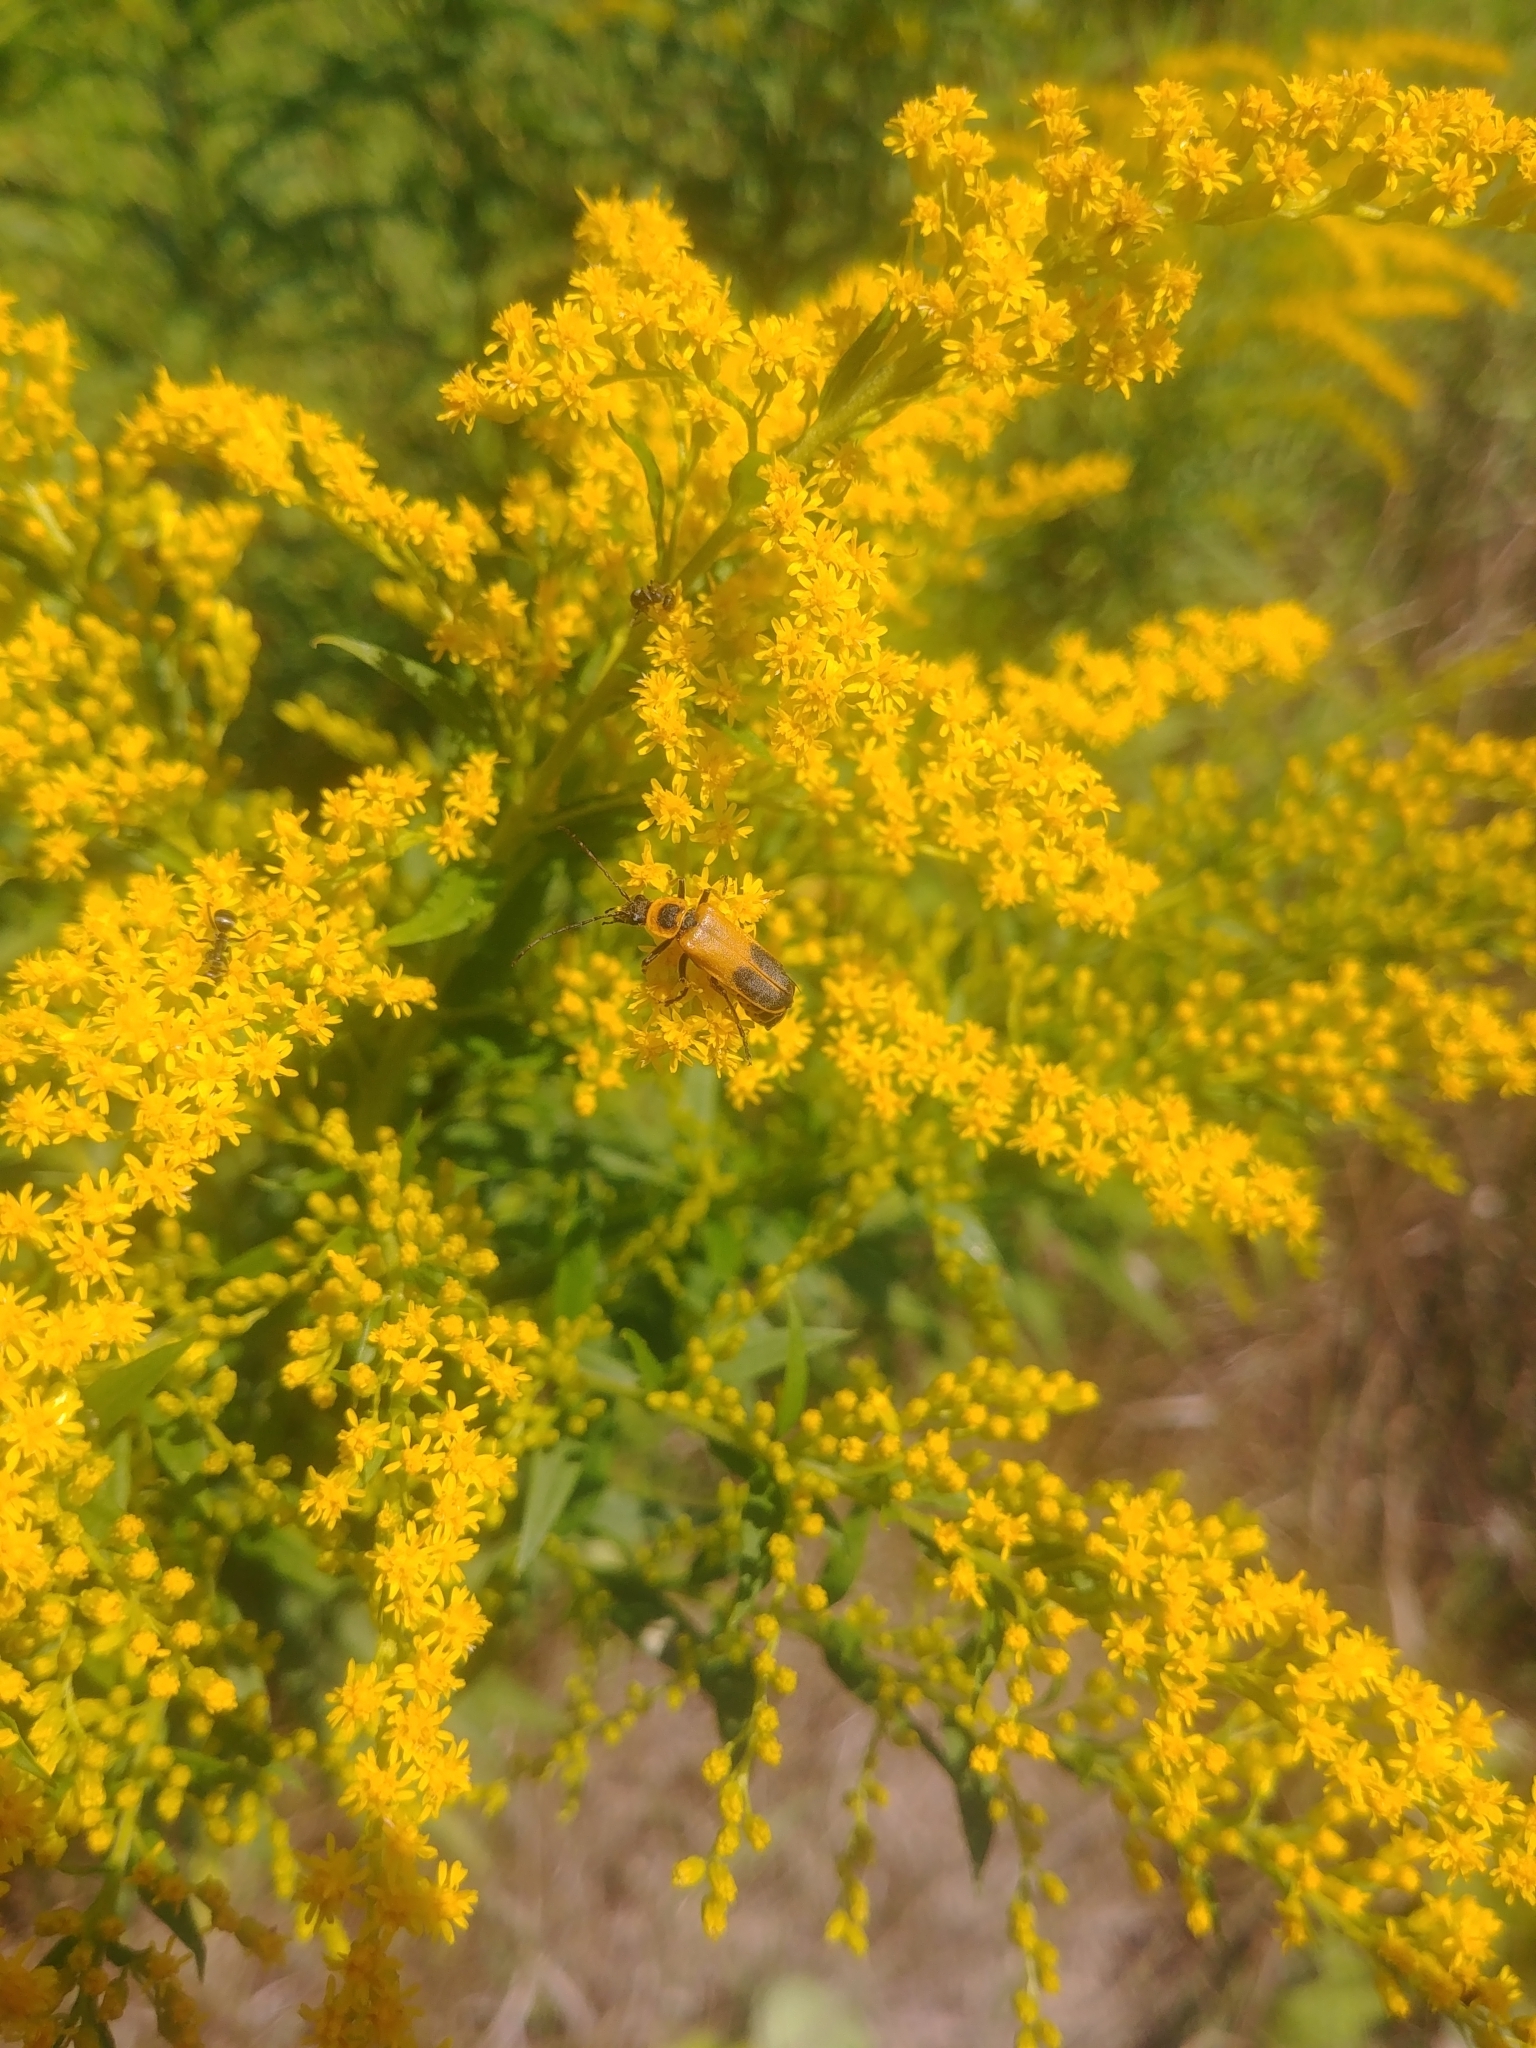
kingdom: Animalia
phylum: Arthropoda
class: Insecta
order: Coleoptera
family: Cantharidae
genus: Chauliognathus
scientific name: Chauliognathus pensylvanicus
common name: Goldenrod soldier beetle
